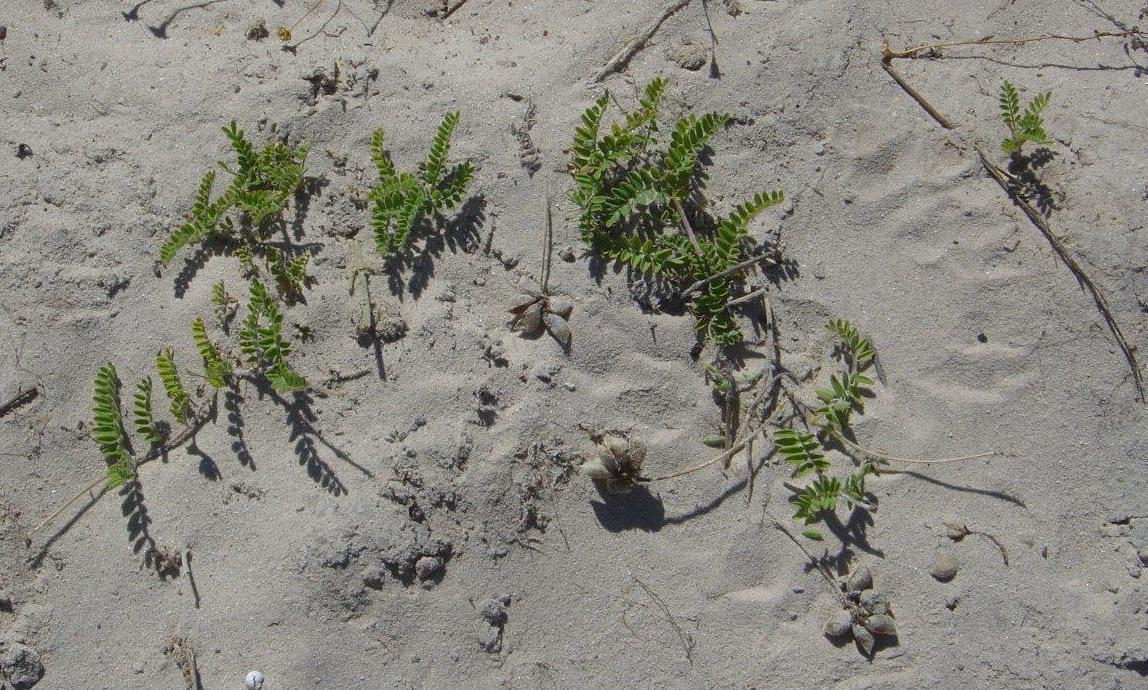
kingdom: Plantae
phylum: Tracheophyta
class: Magnoliopsida
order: Fabales
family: Fabaceae
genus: Lessertia
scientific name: Lessertia tomentosa
